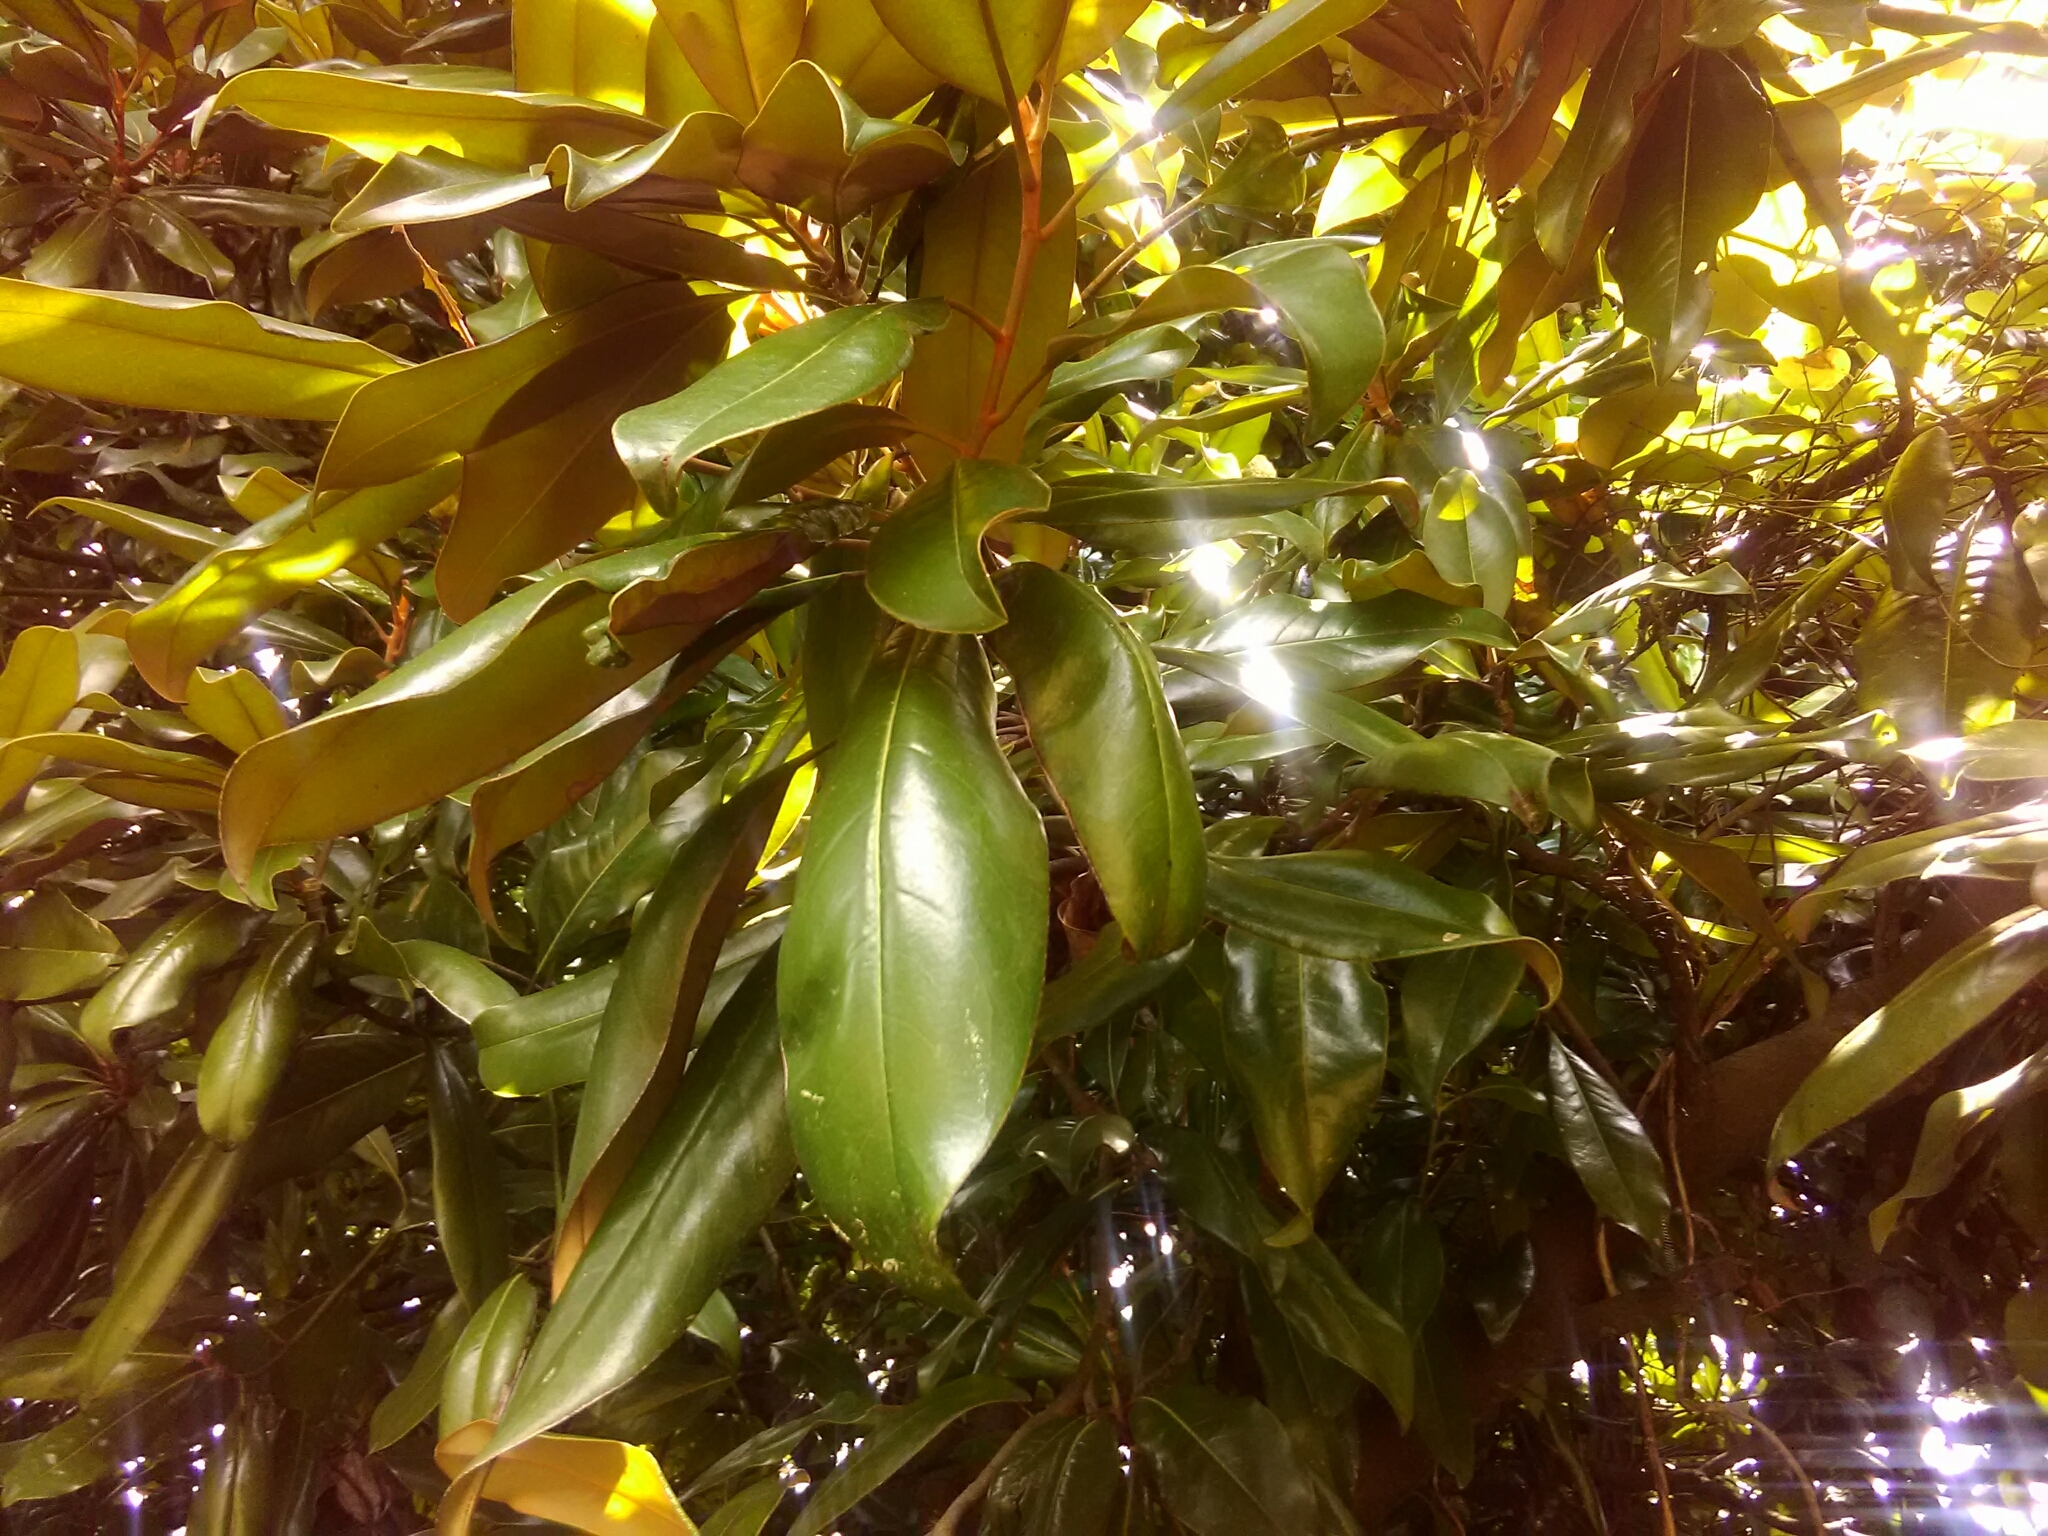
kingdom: Plantae
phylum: Tracheophyta
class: Magnoliopsida
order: Magnoliales
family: Magnoliaceae
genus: Magnolia
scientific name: Magnolia grandiflora
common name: Southern magnolia
